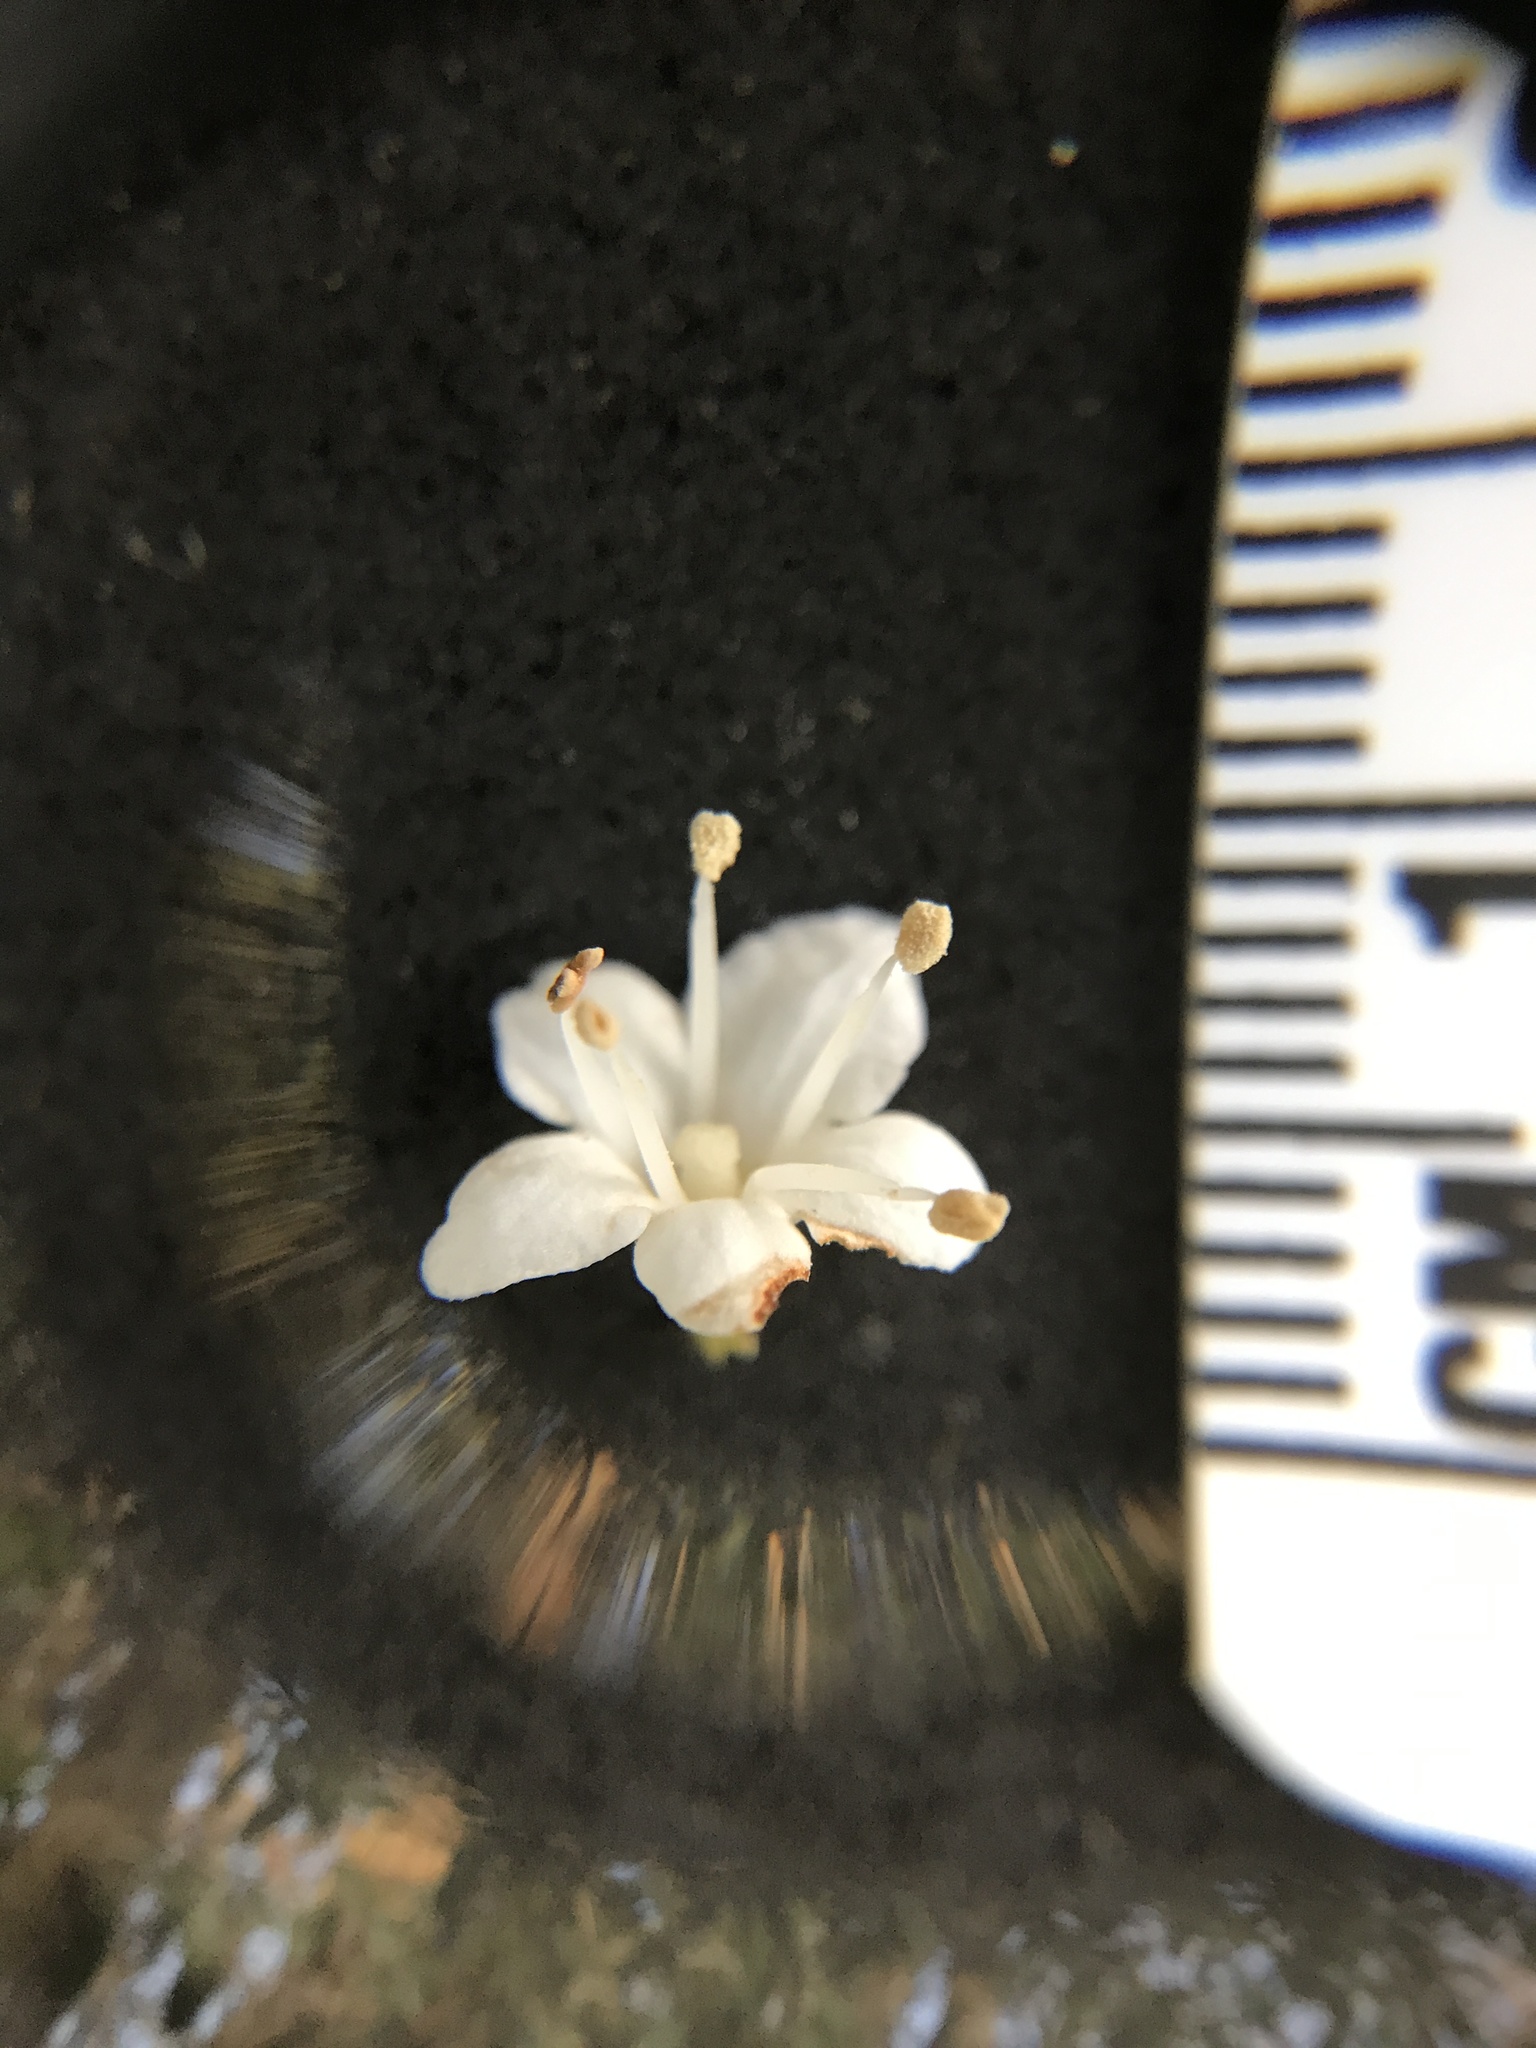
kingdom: Plantae
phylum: Tracheophyta
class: Magnoliopsida
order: Dipsacales
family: Viburnaceae
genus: Viburnum
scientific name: Viburnum tinus
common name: Laurustinus
